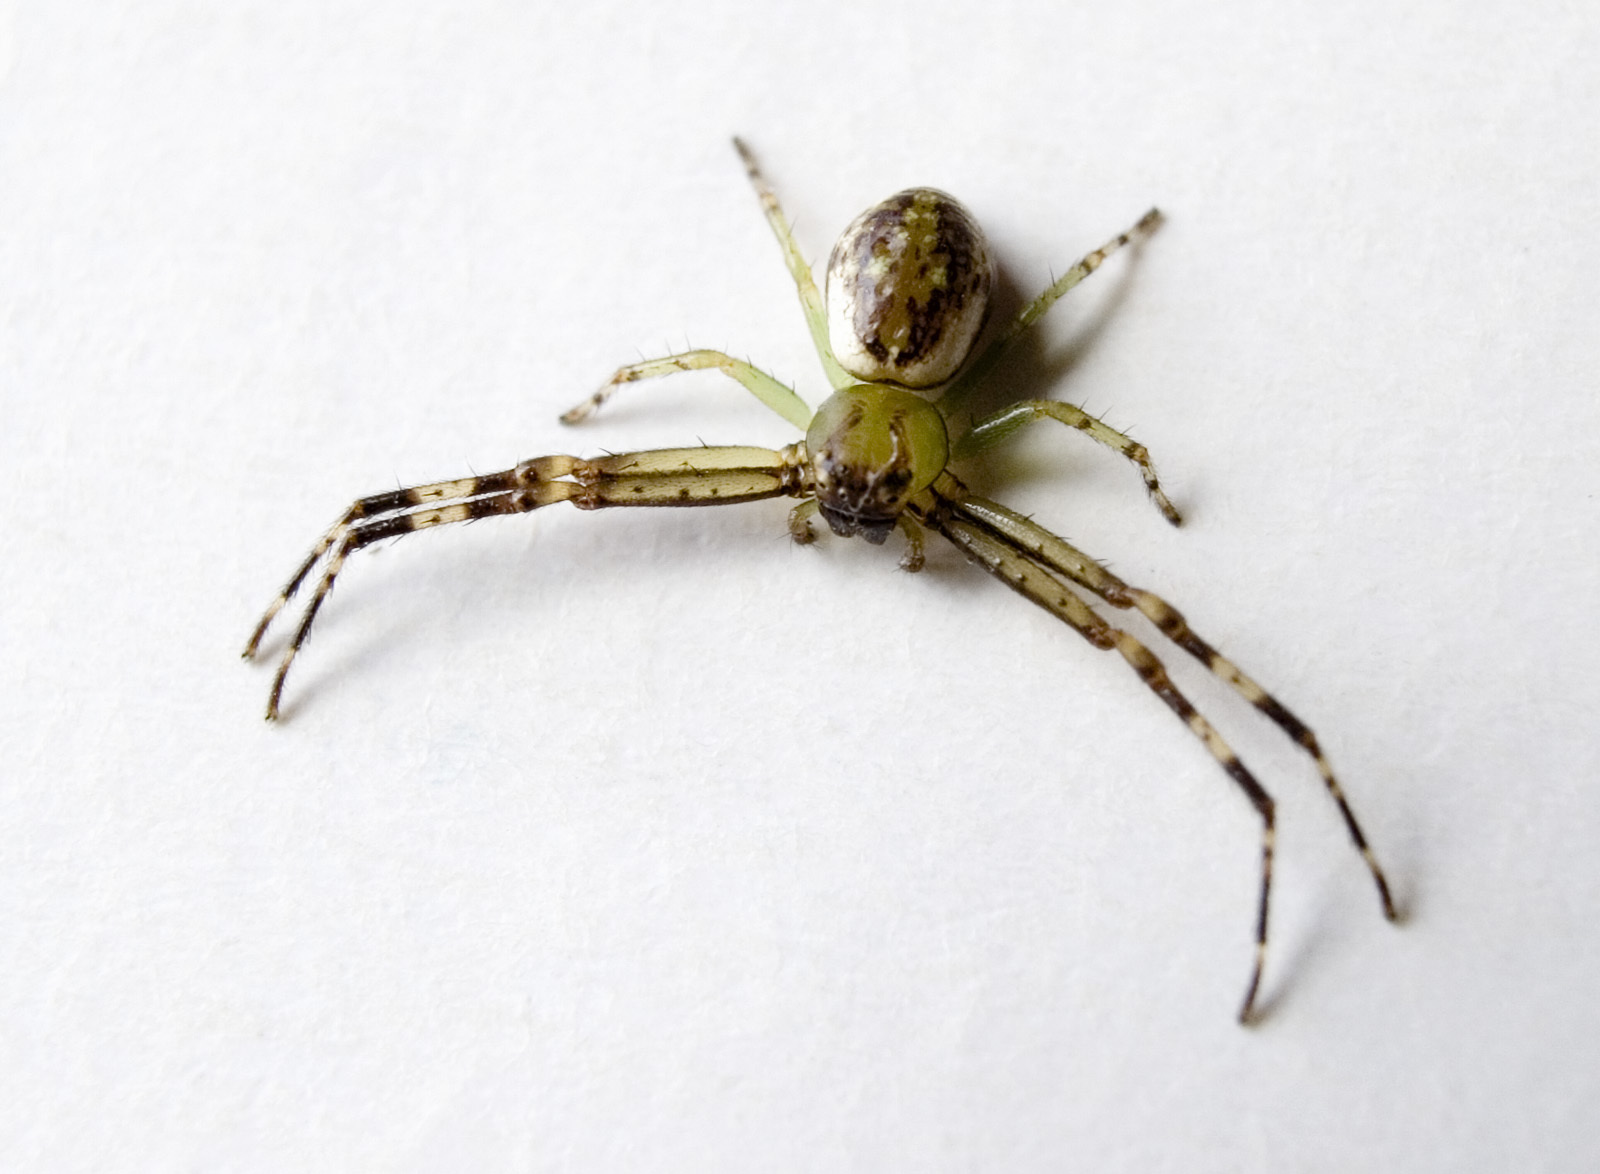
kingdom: Animalia
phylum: Arthropoda
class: Arachnida
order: Araneae
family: Thomisidae
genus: Diaea
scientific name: Diaea ambara
